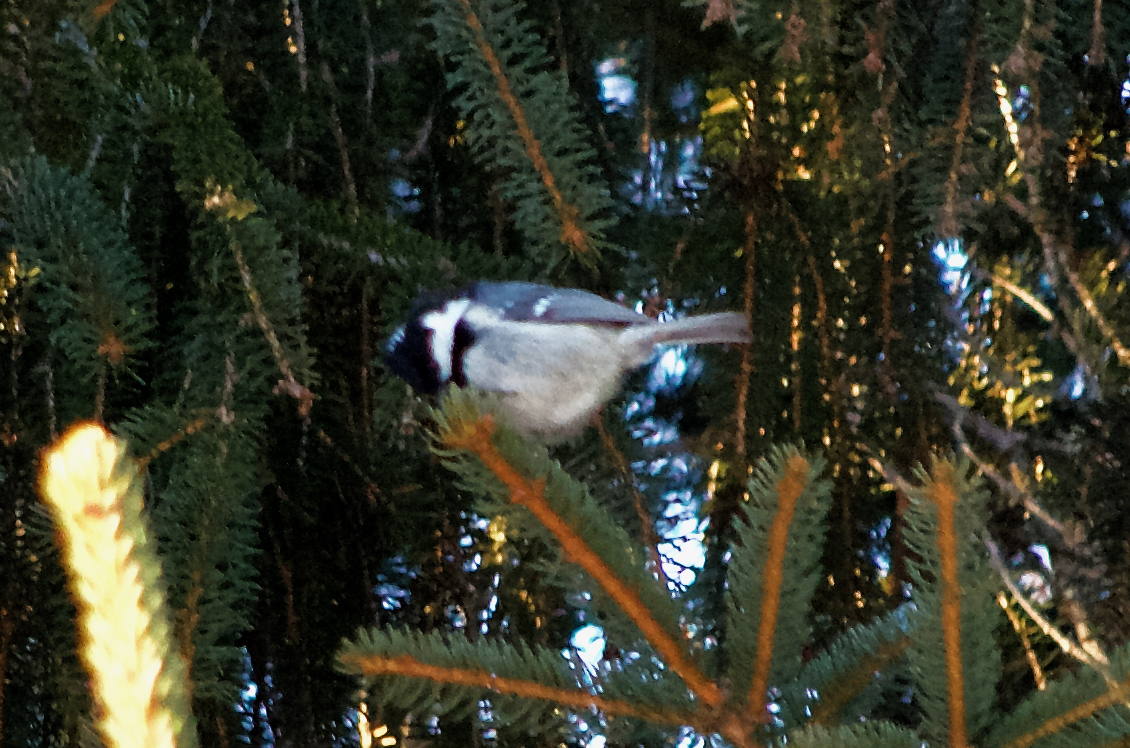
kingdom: Animalia
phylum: Chordata
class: Aves
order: Passeriformes
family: Paridae
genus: Periparus
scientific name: Periparus ater
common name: Coal tit
